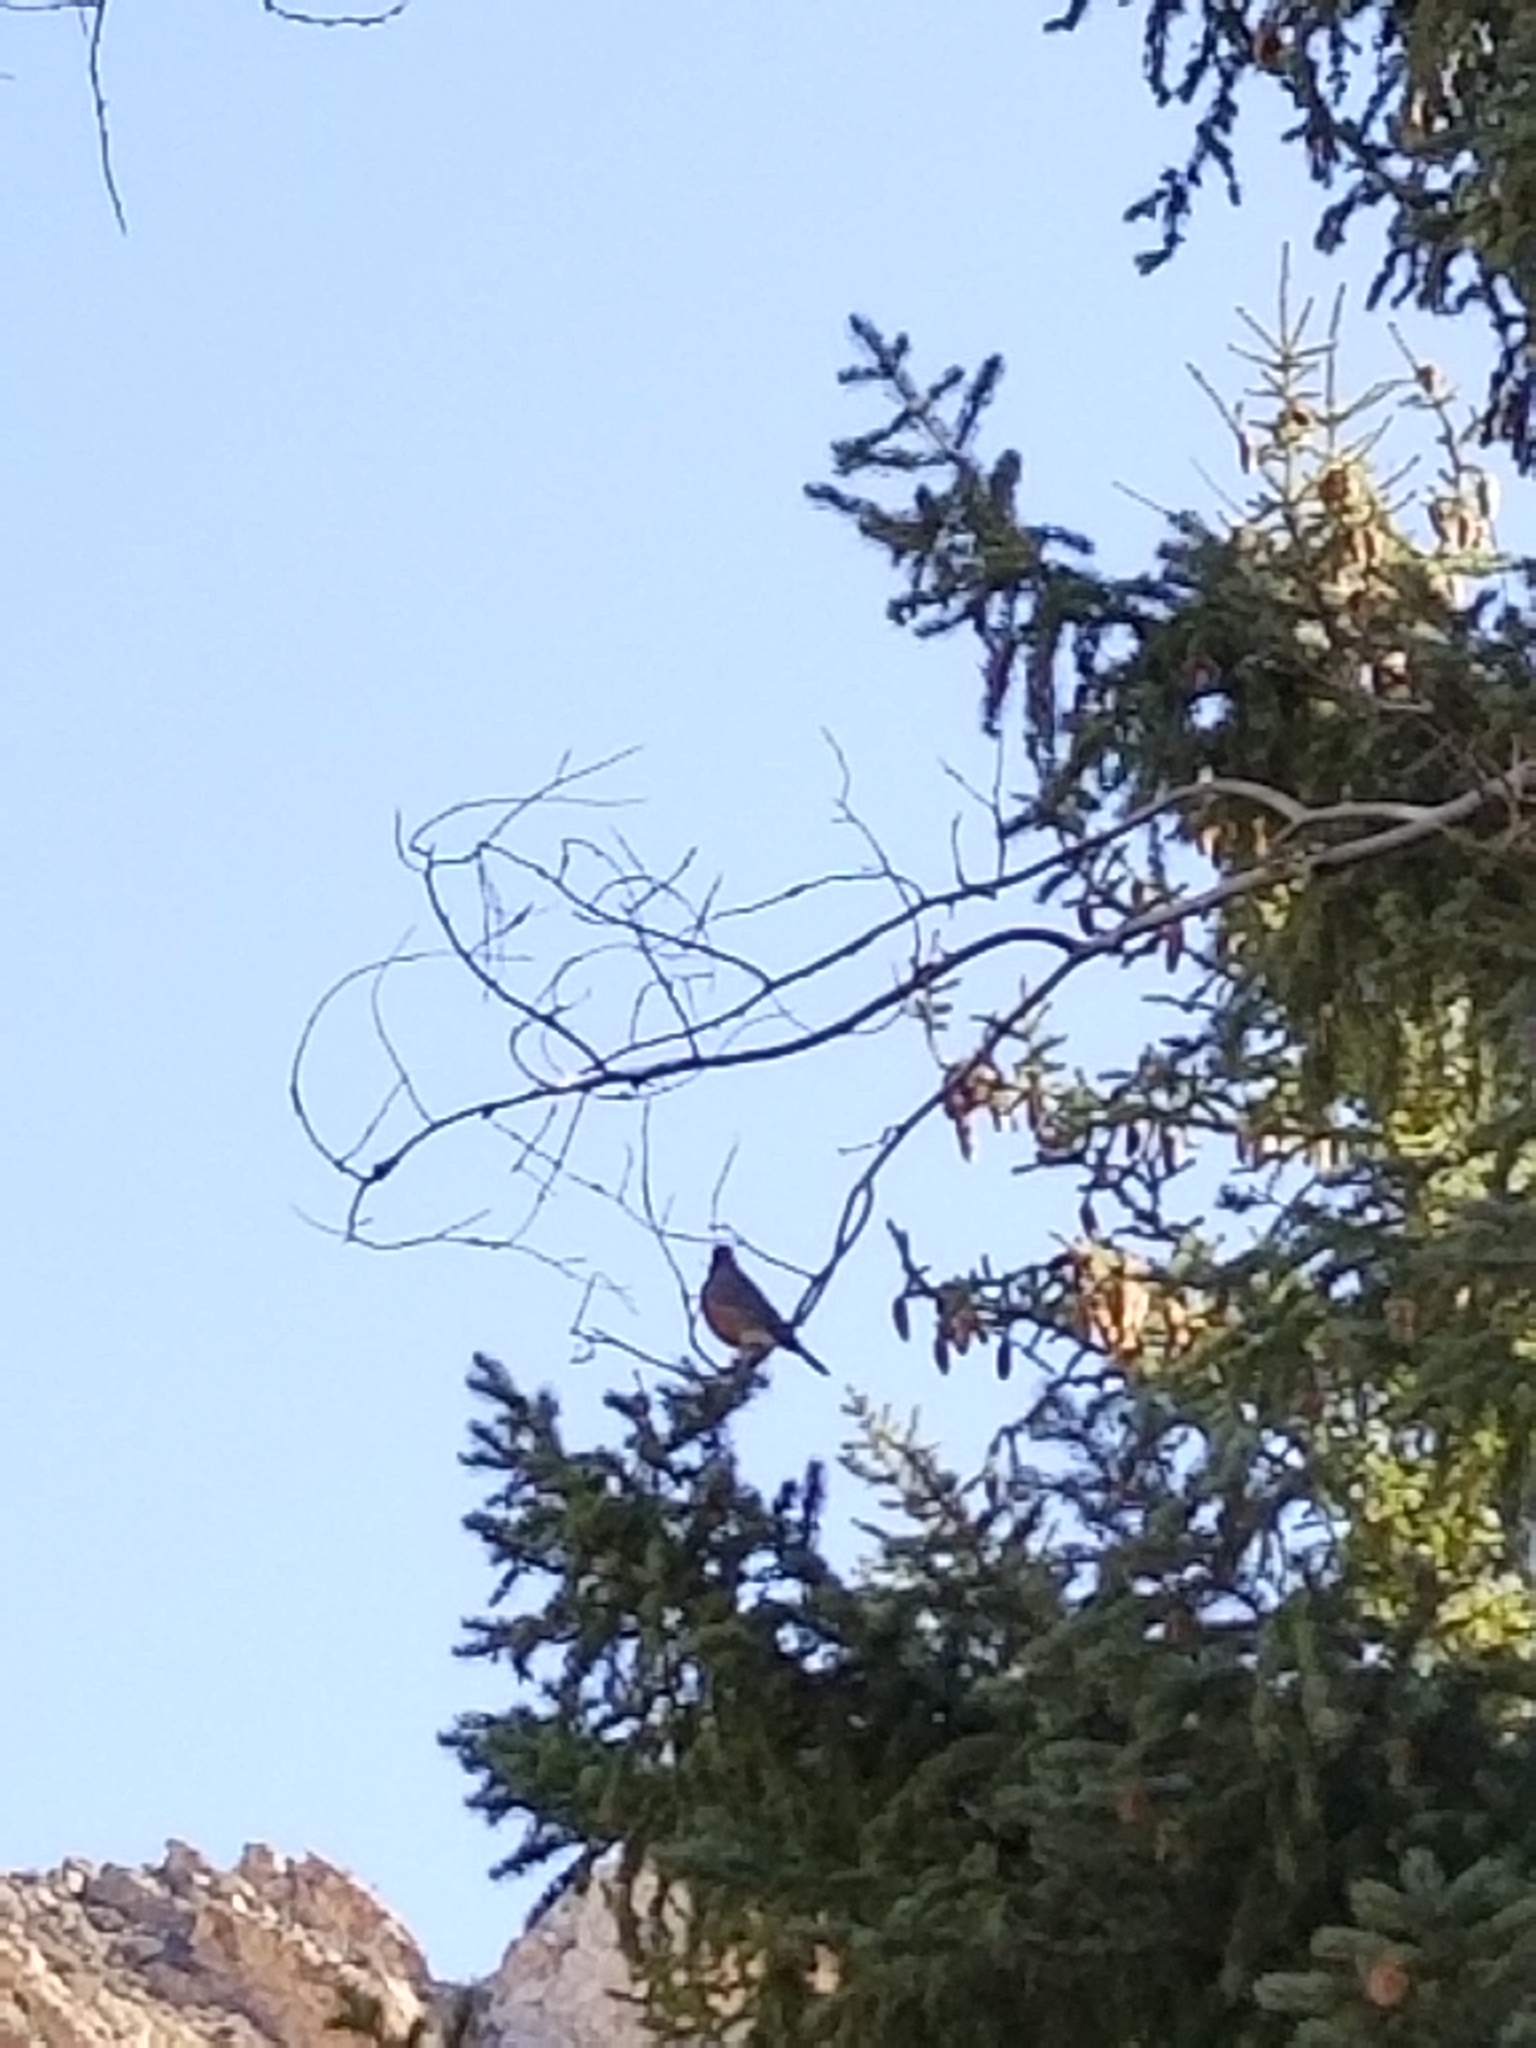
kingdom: Animalia
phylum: Chordata
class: Aves
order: Passeriformes
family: Turdidae
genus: Turdus
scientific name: Turdus migratorius
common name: American robin
